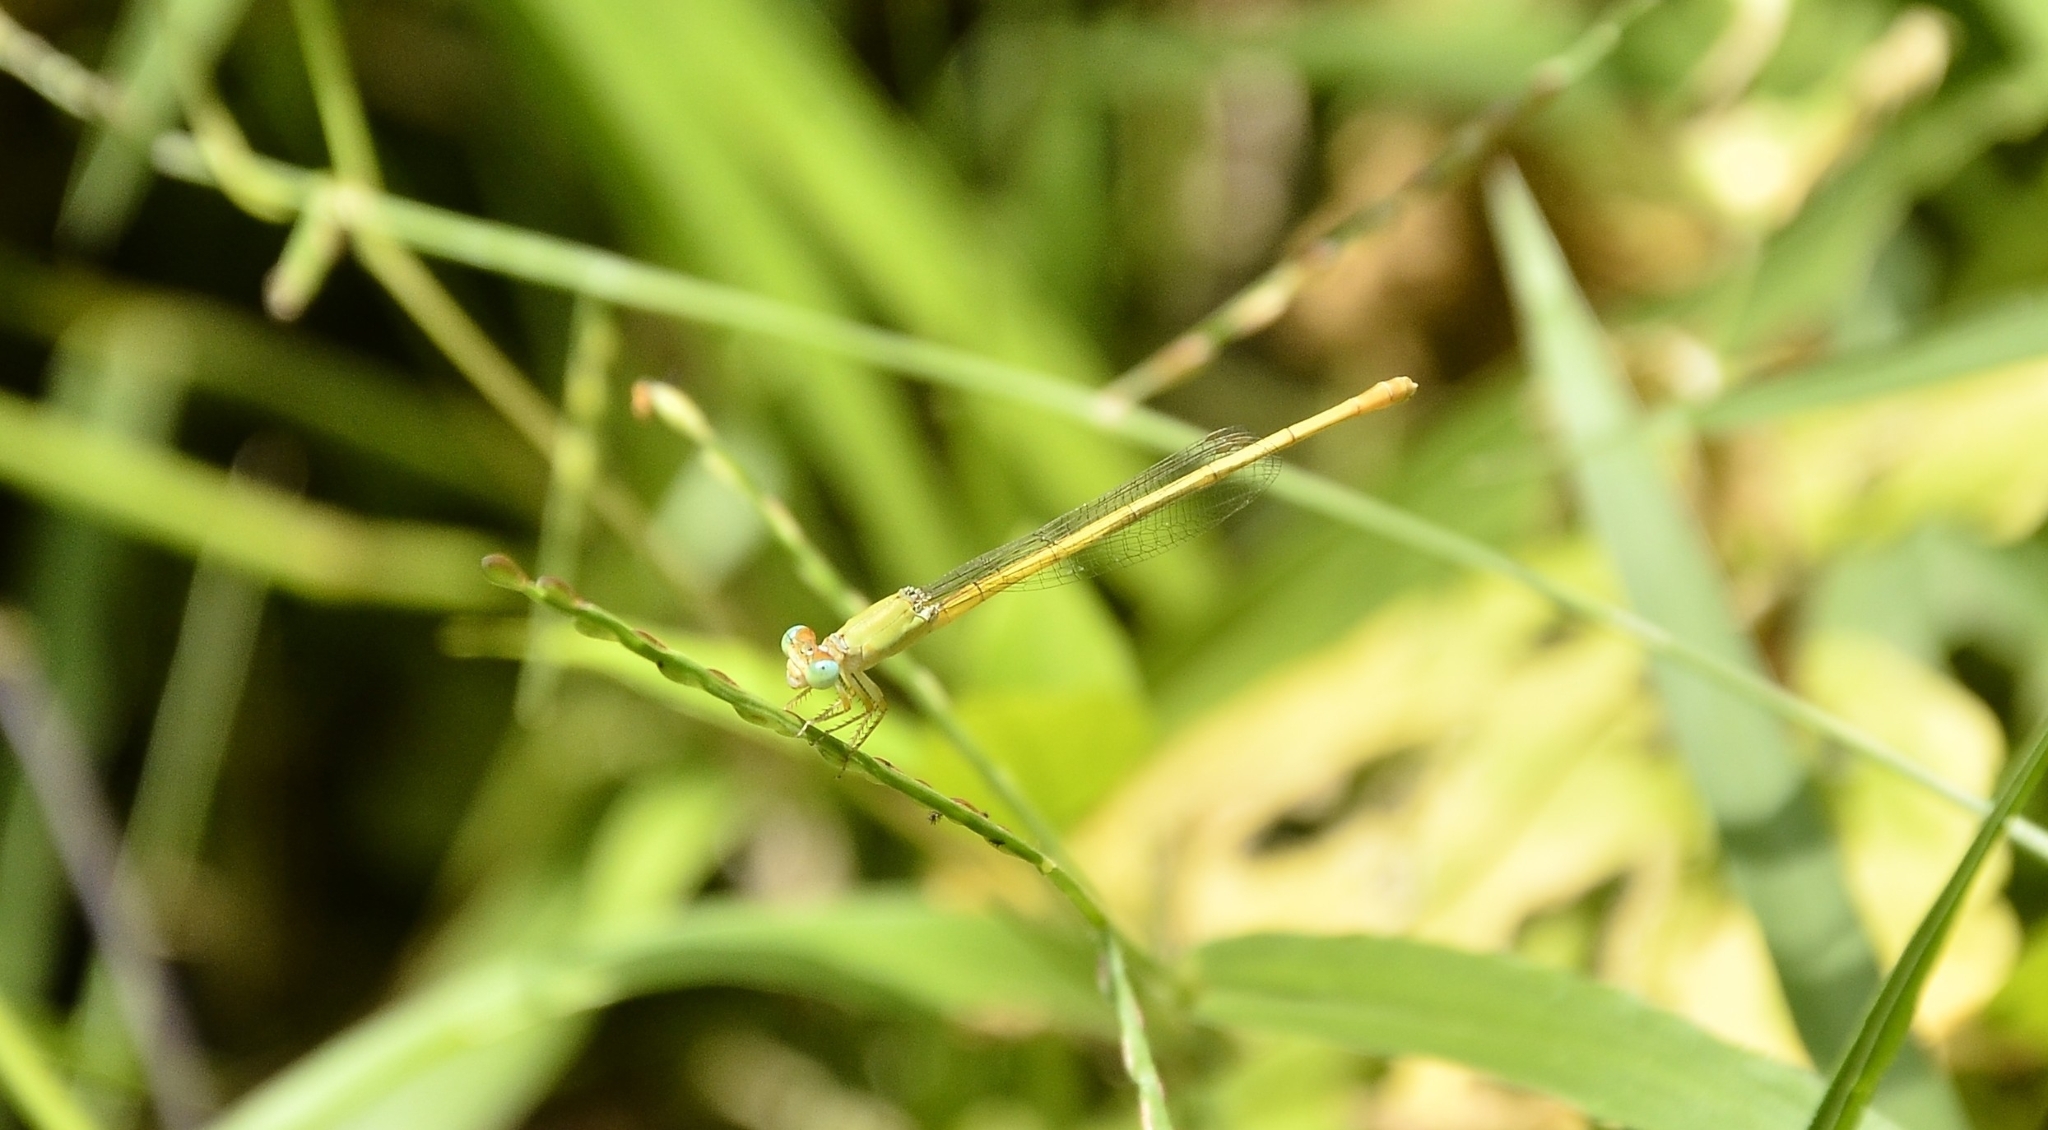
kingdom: Animalia
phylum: Arthropoda
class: Insecta
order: Odonata
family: Coenagrionidae
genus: Ceriagrion
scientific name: Ceriagrion coromandelianum
